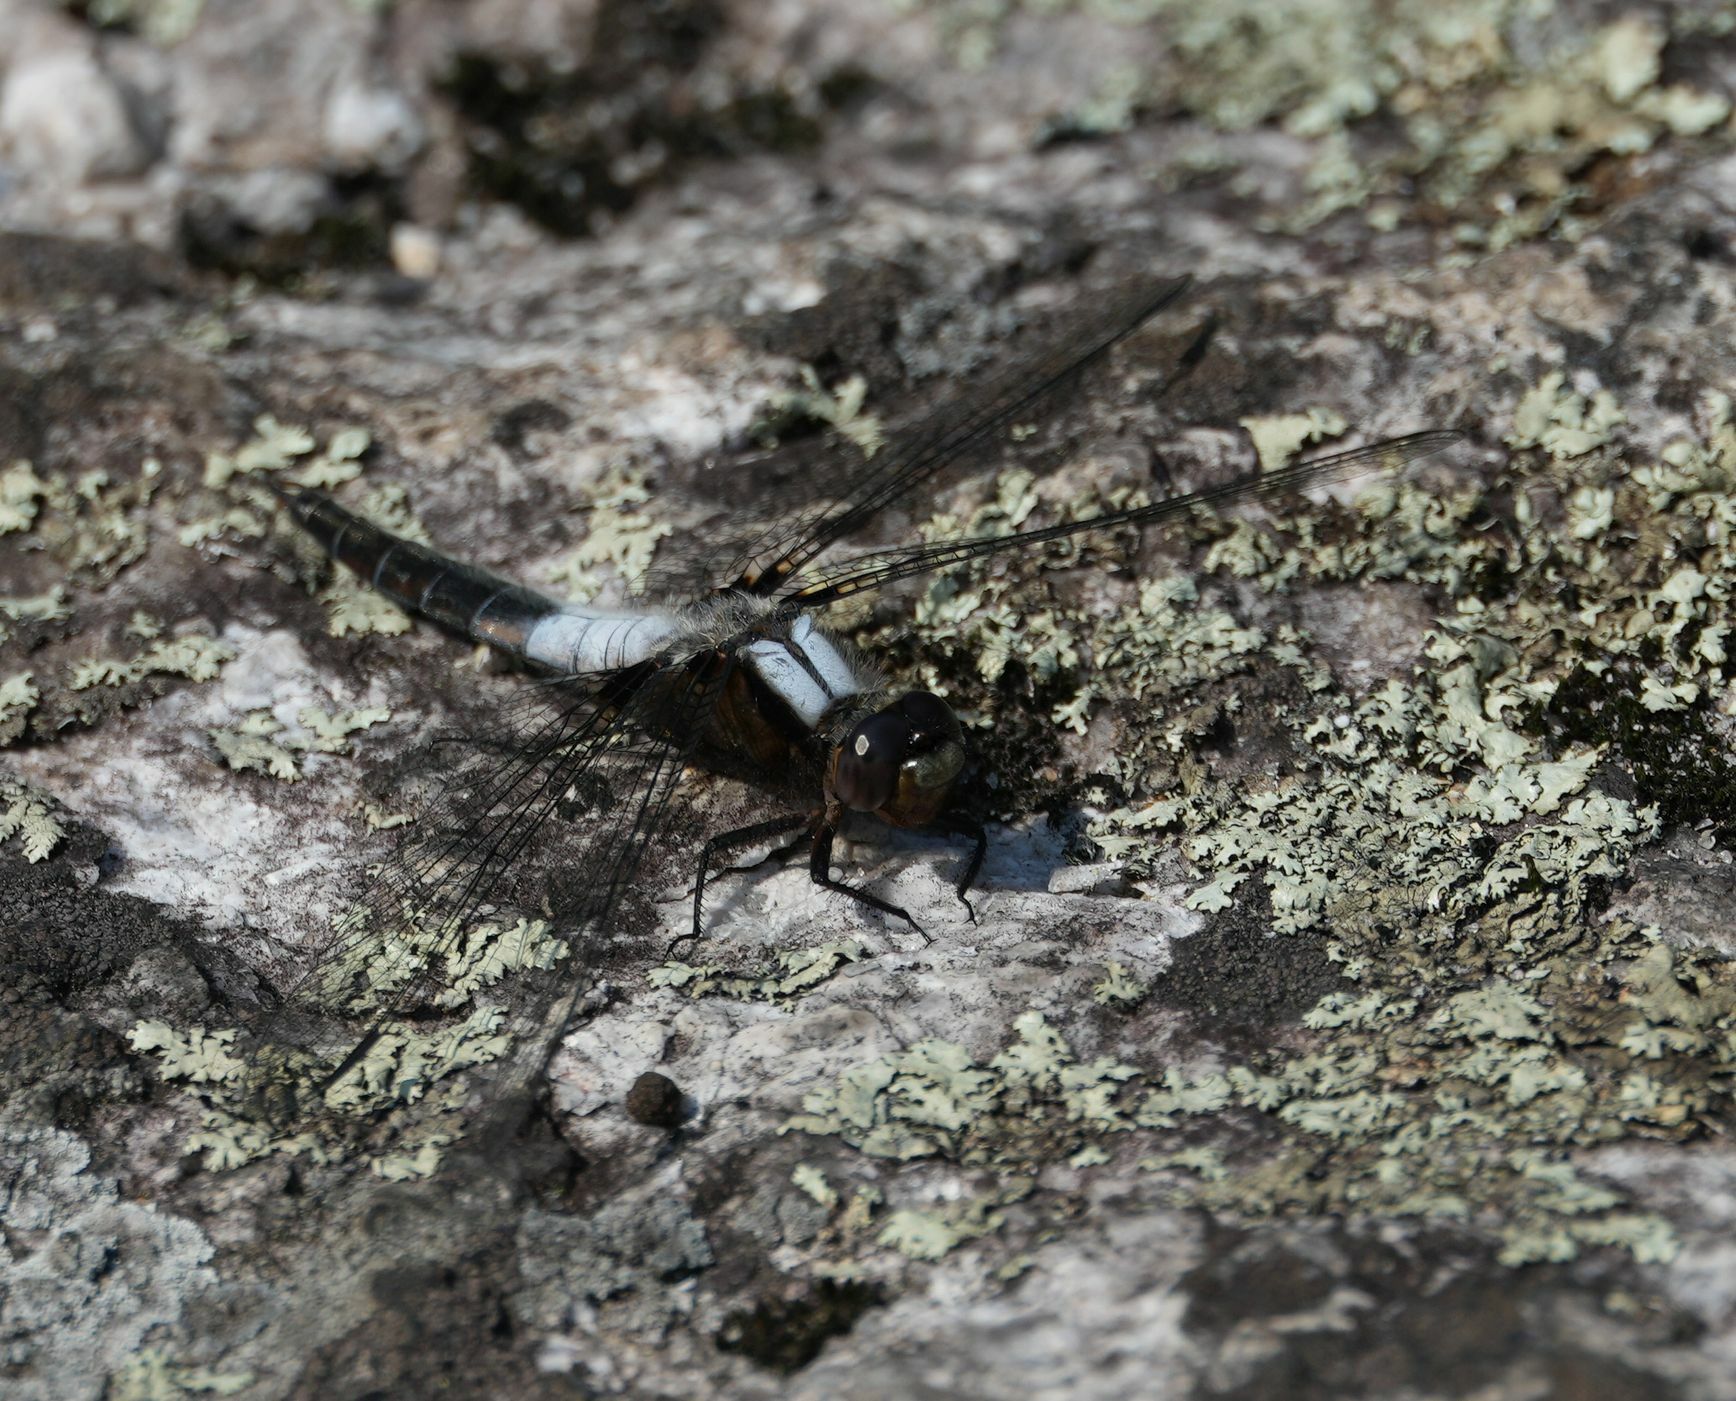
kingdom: Animalia
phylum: Arthropoda
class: Insecta
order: Odonata
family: Libellulidae
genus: Ladona
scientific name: Ladona julia
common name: Chalk-fronted corporal
